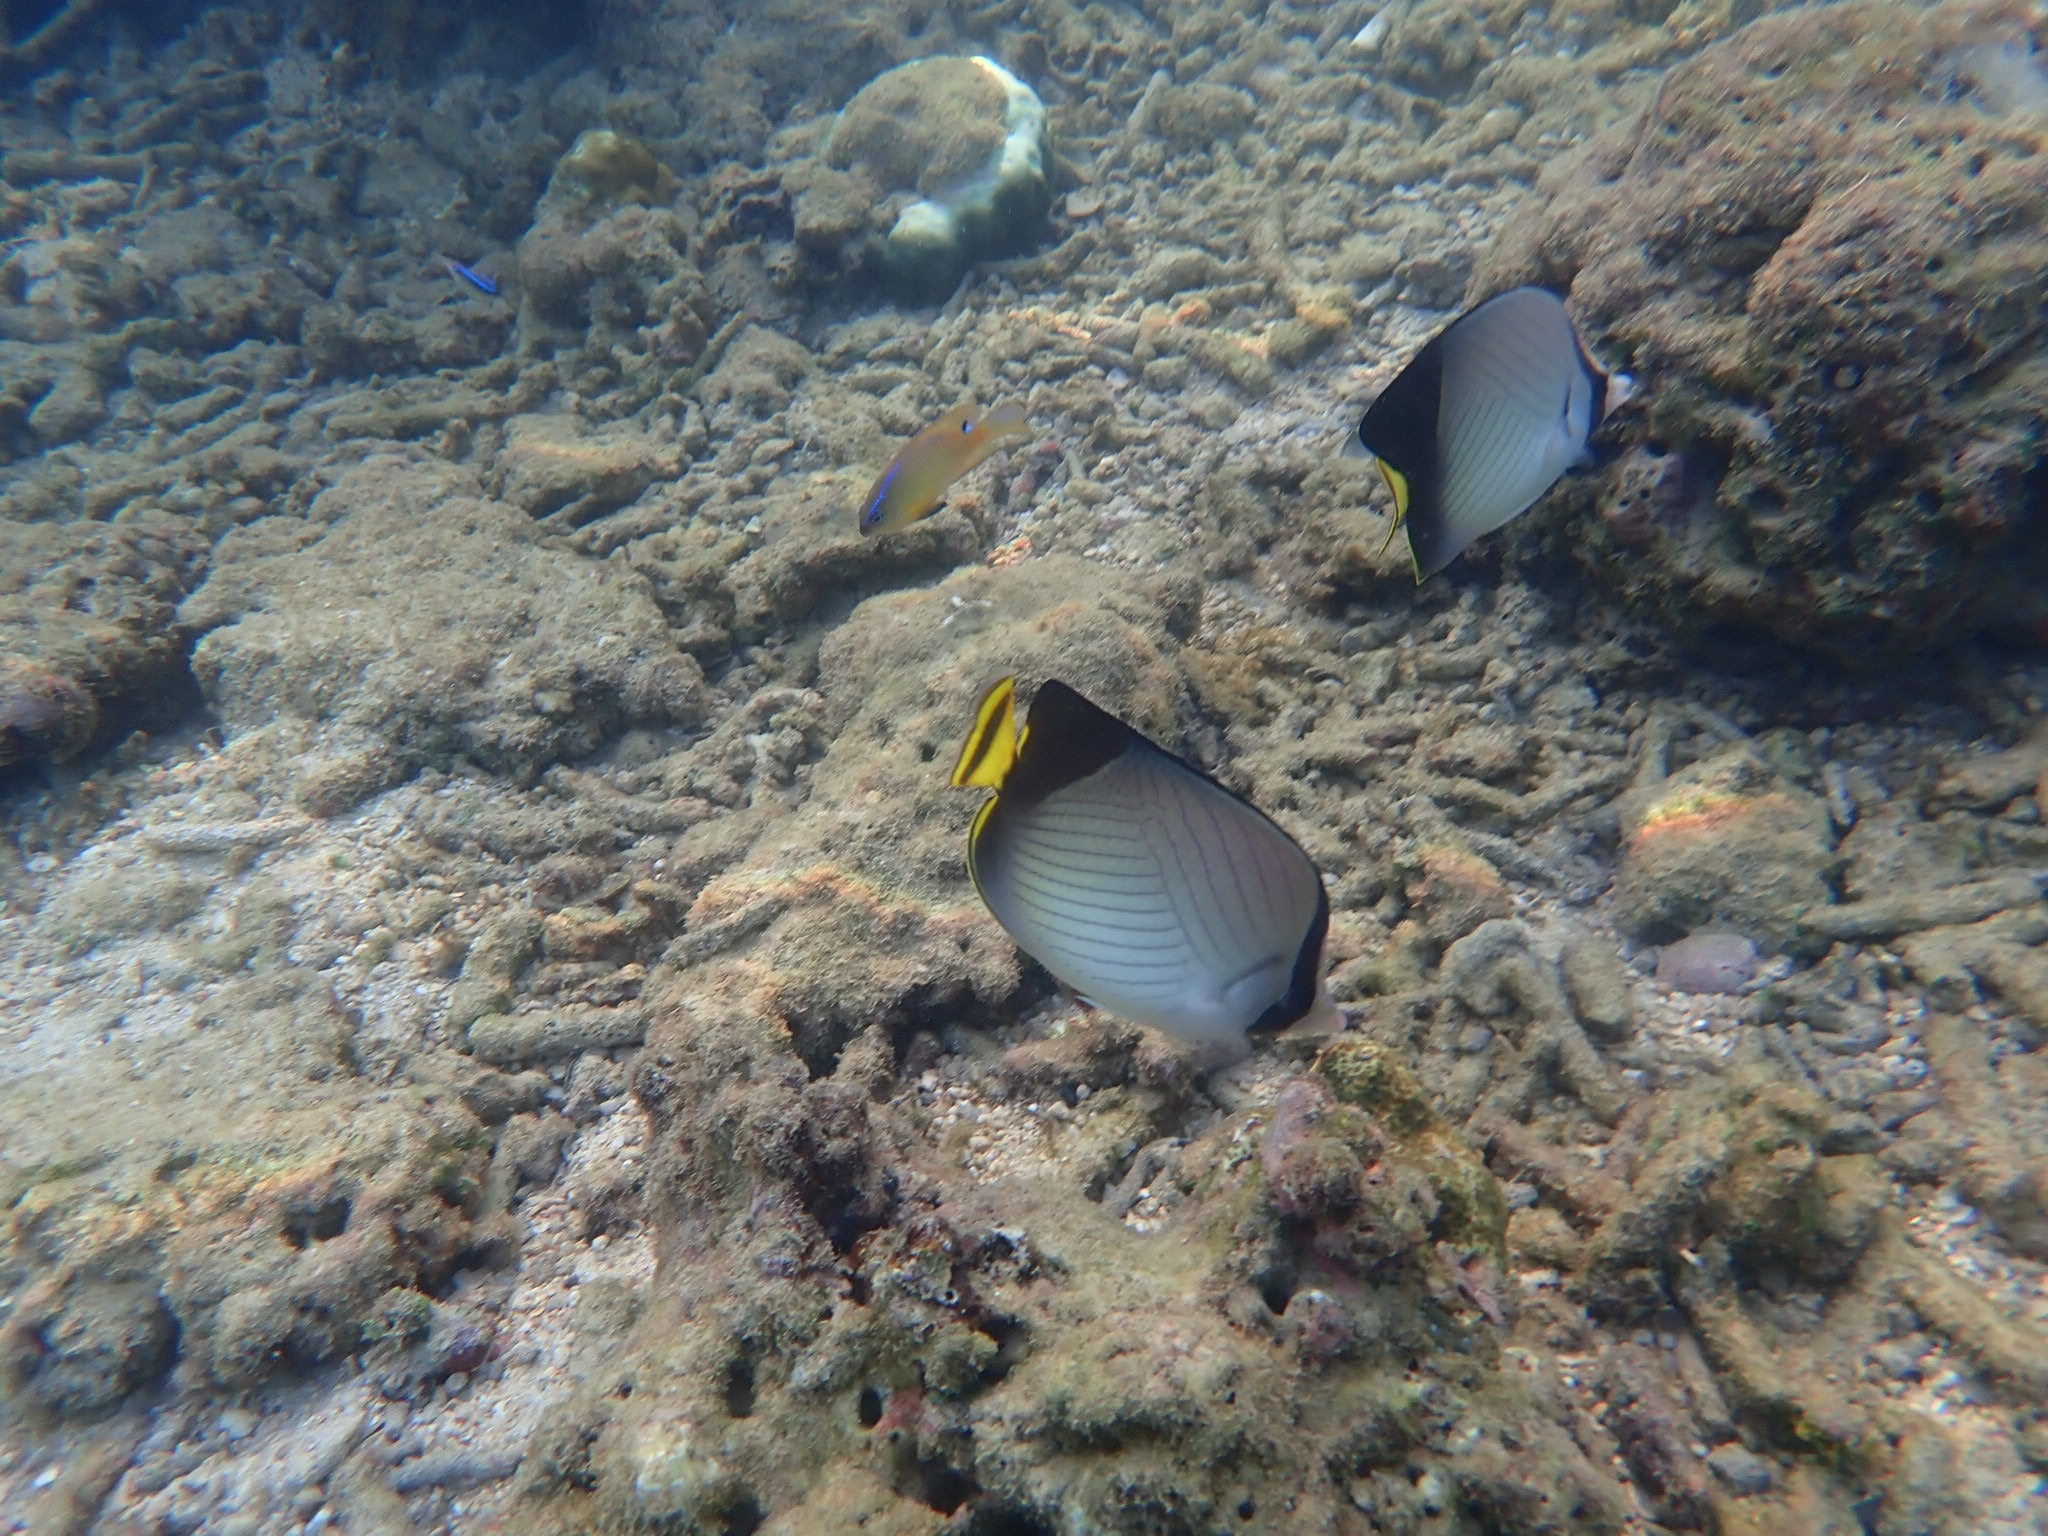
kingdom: Animalia
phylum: Chordata
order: Perciformes
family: Chaetodontidae
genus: Chaetodon
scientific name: Chaetodon decussatus
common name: Indian vagabond butterflyfish
